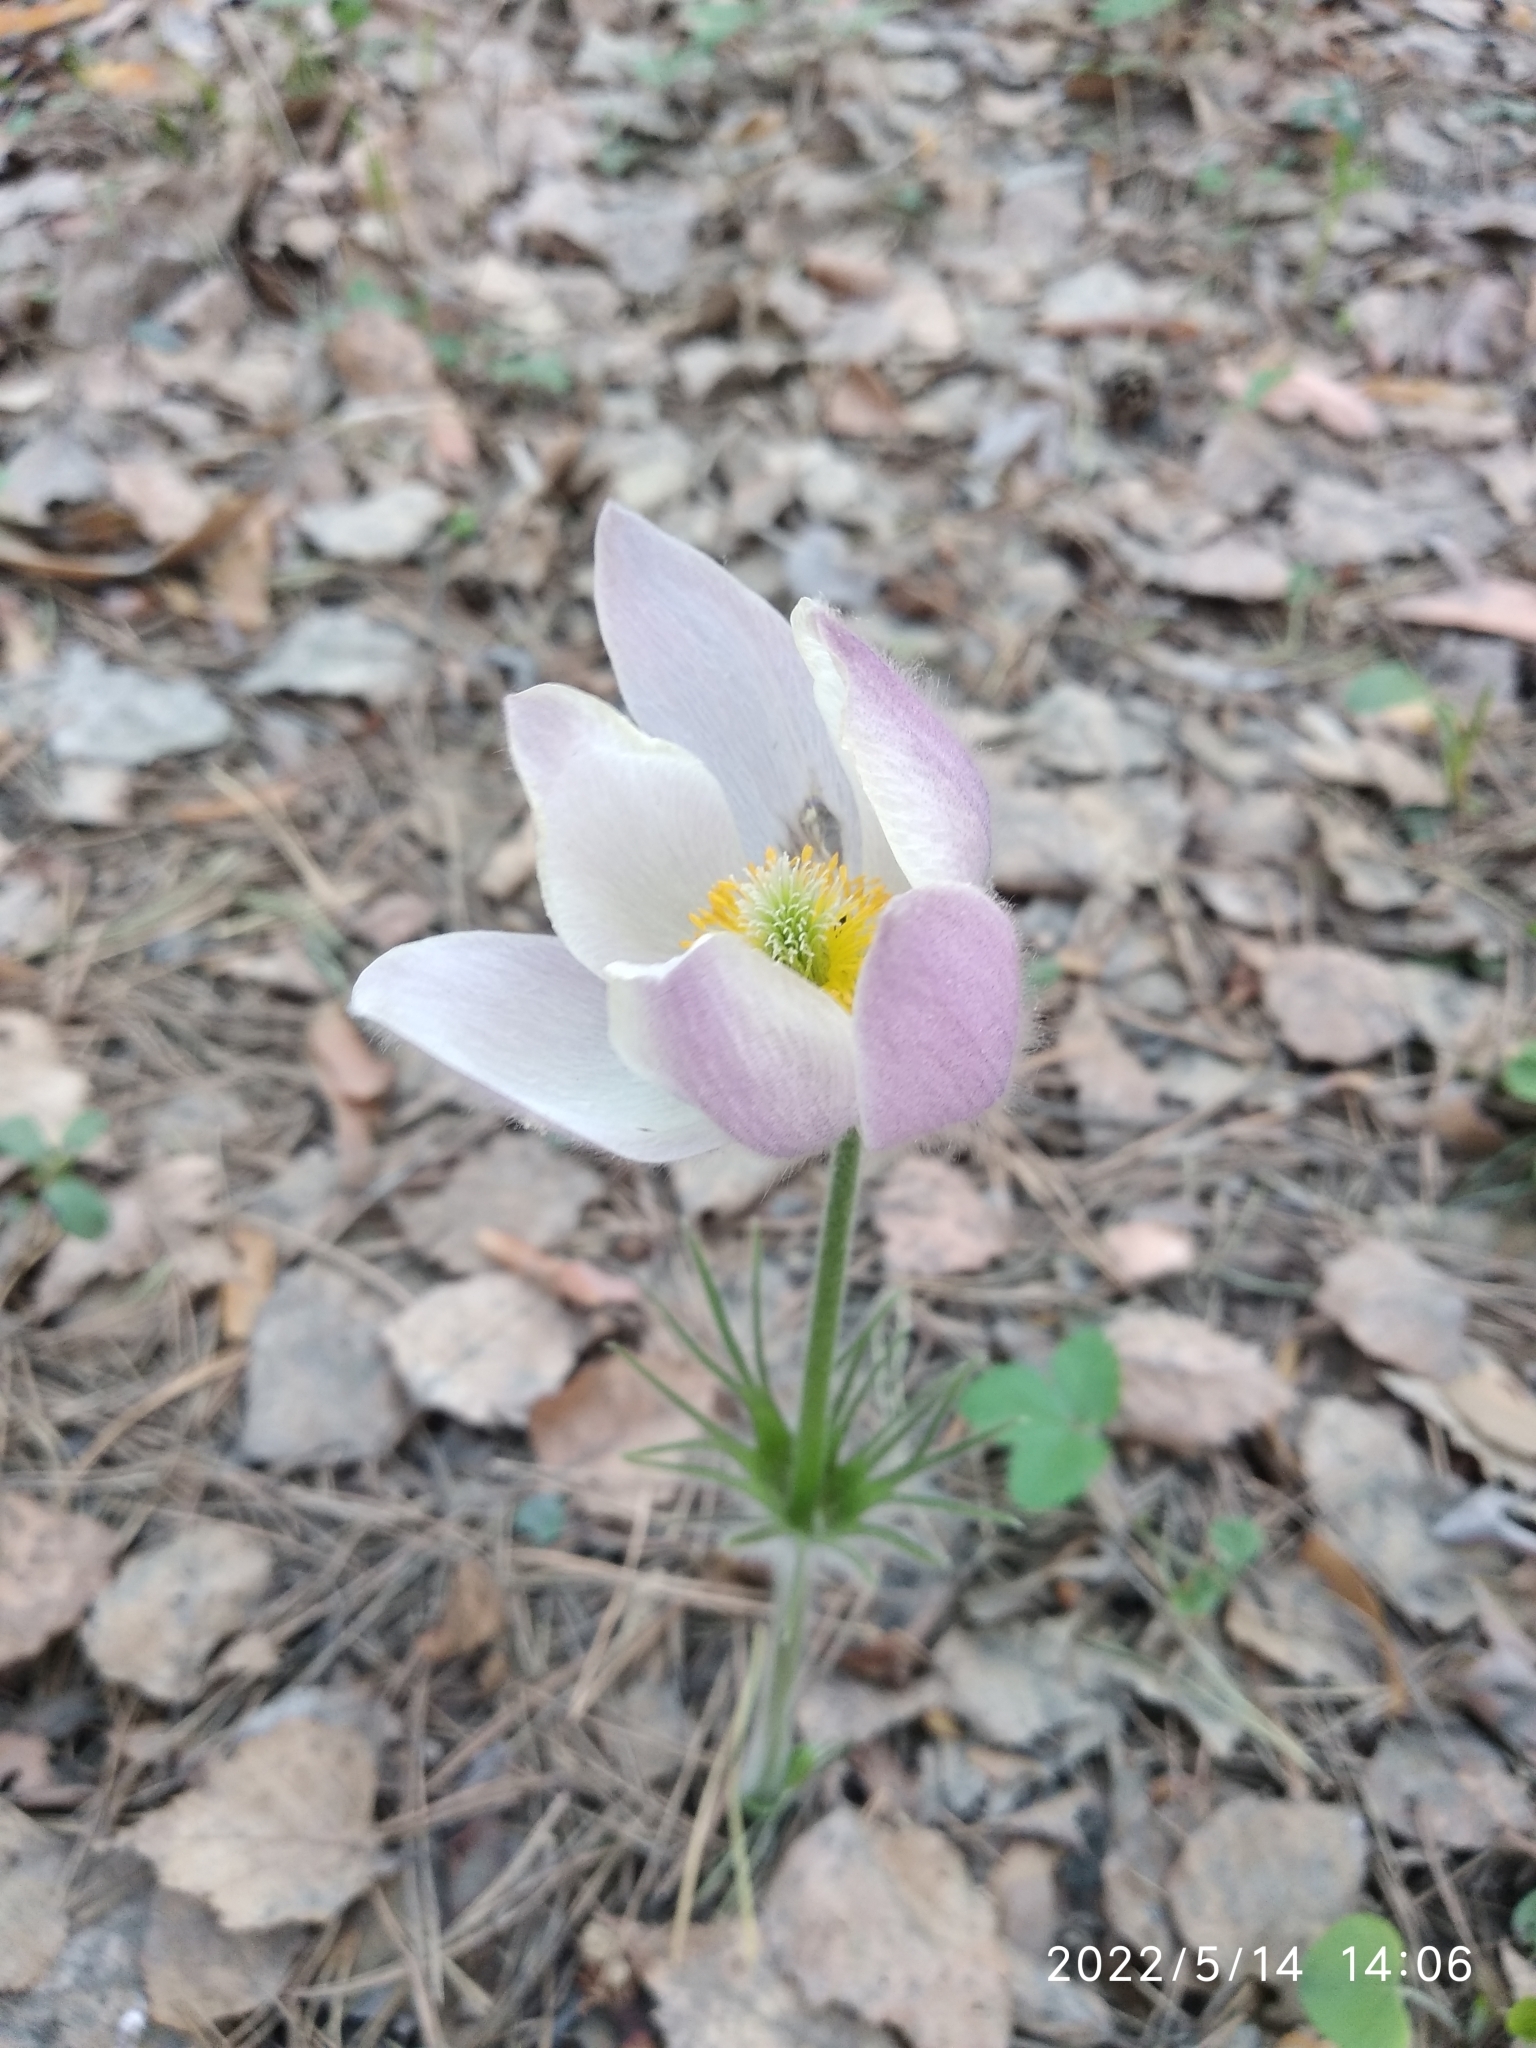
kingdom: Plantae
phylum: Tracheophyta
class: Magnoliopsida
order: Ranunculales
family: Ranunculaceae
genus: Pulsatilla
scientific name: Pulsatilla patens
